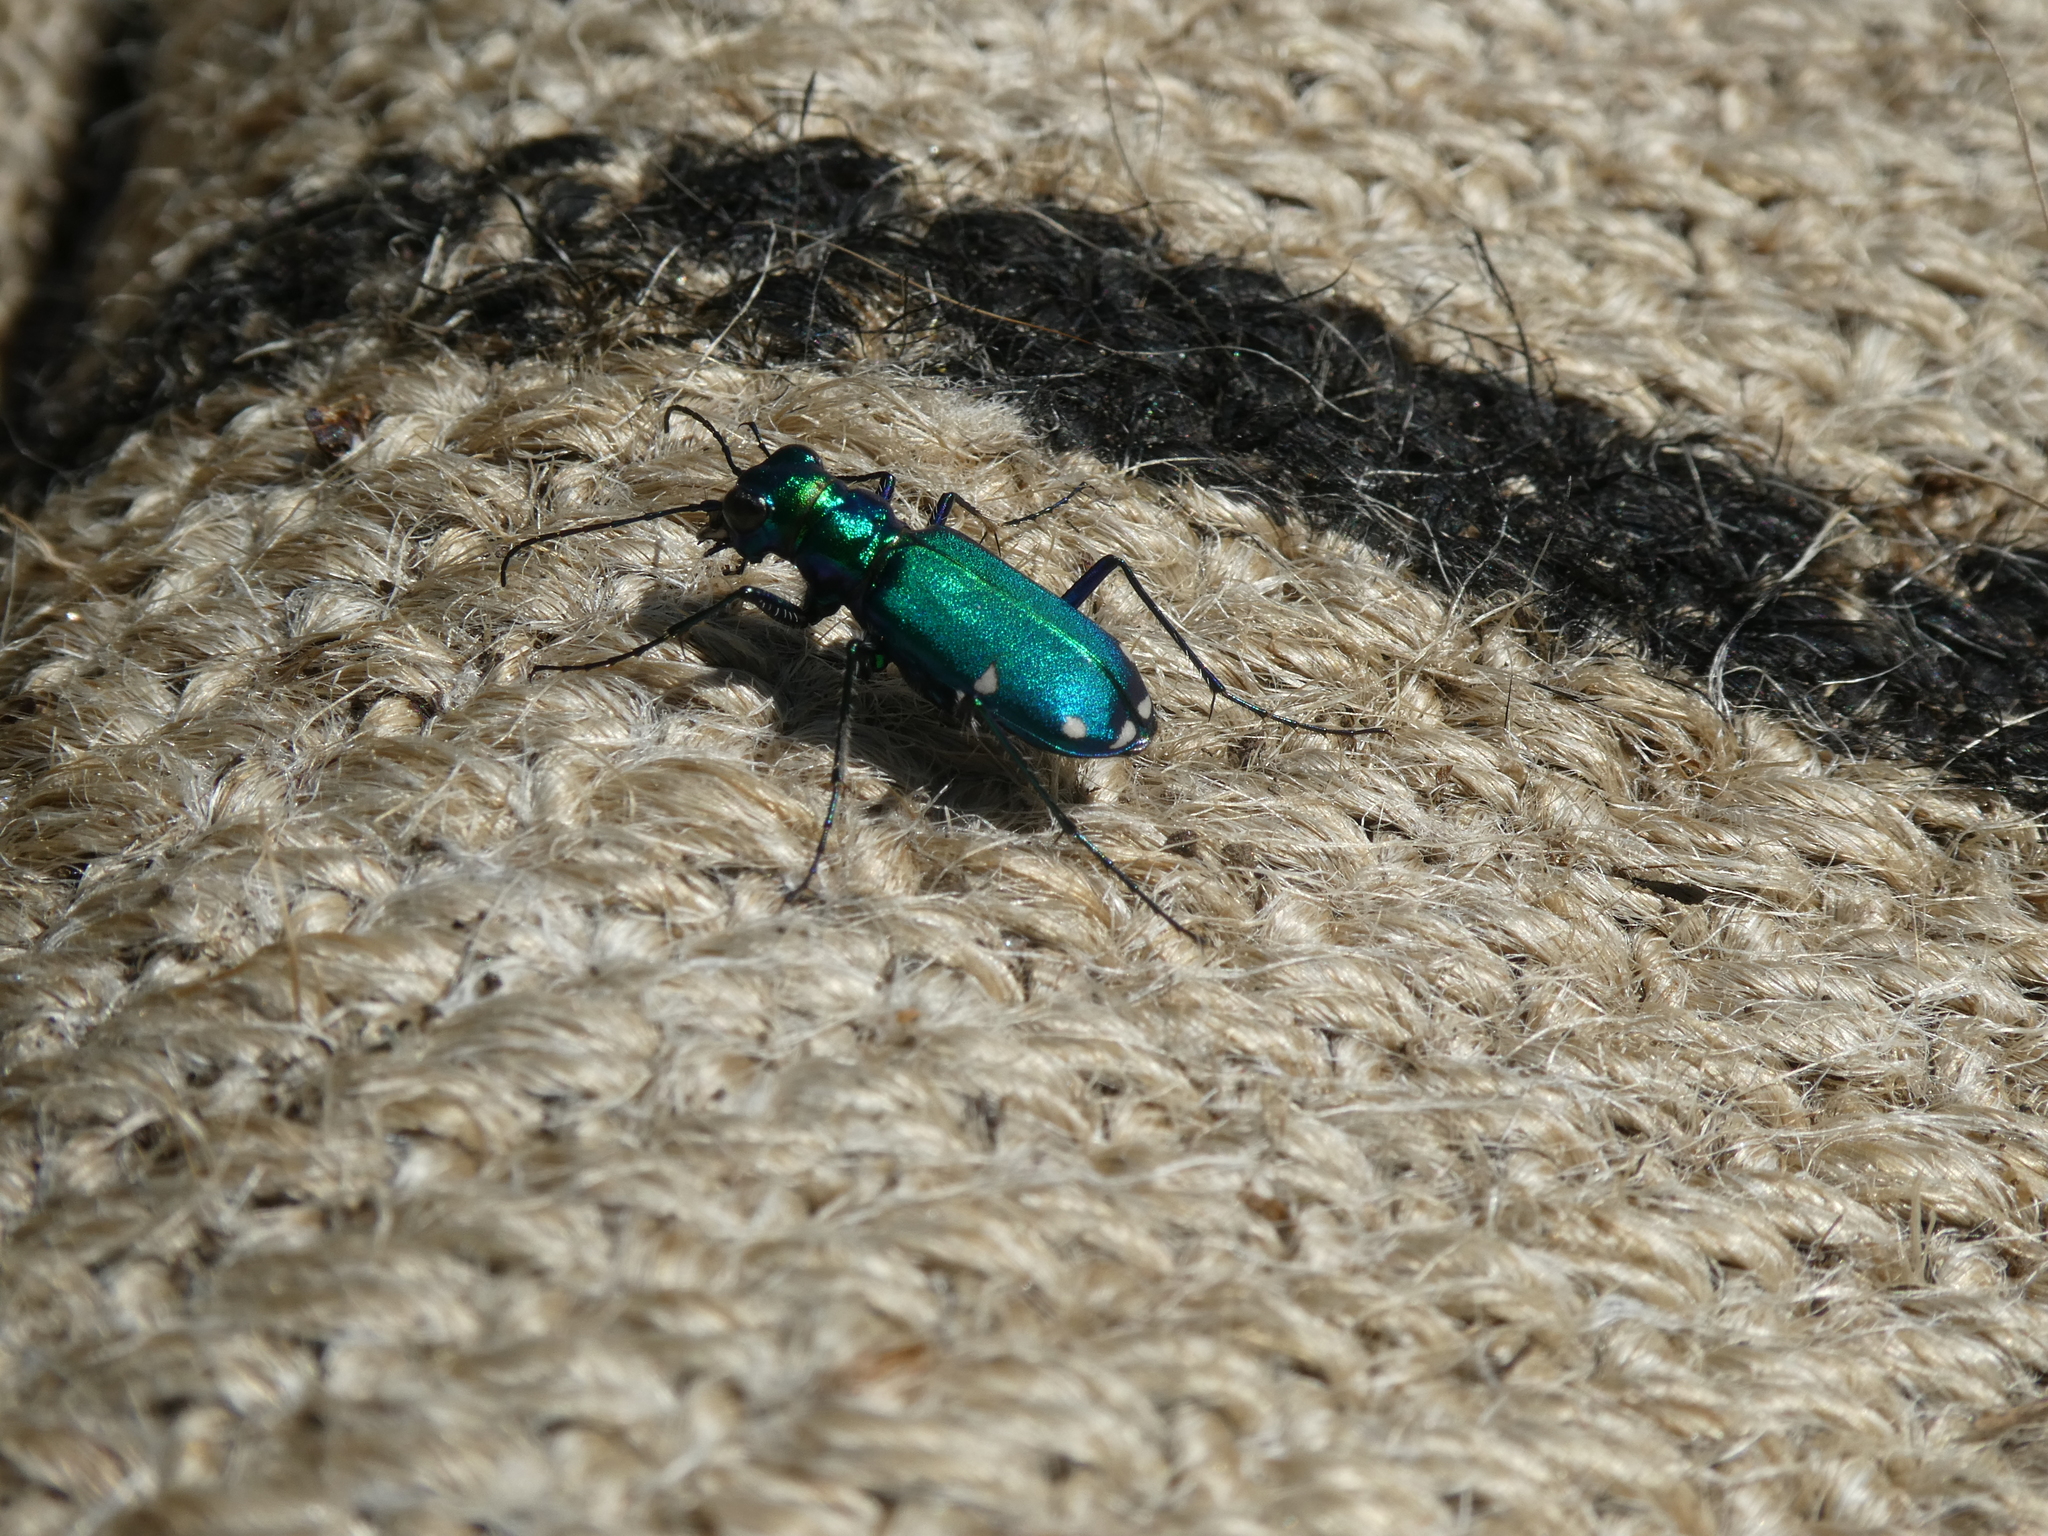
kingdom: Animalia
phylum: Arthropoda
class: Insecta
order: Coleoptera
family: Carabidae
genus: Cicindela
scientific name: Cicindela sexguttata
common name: Six-spotted tiger beetle
